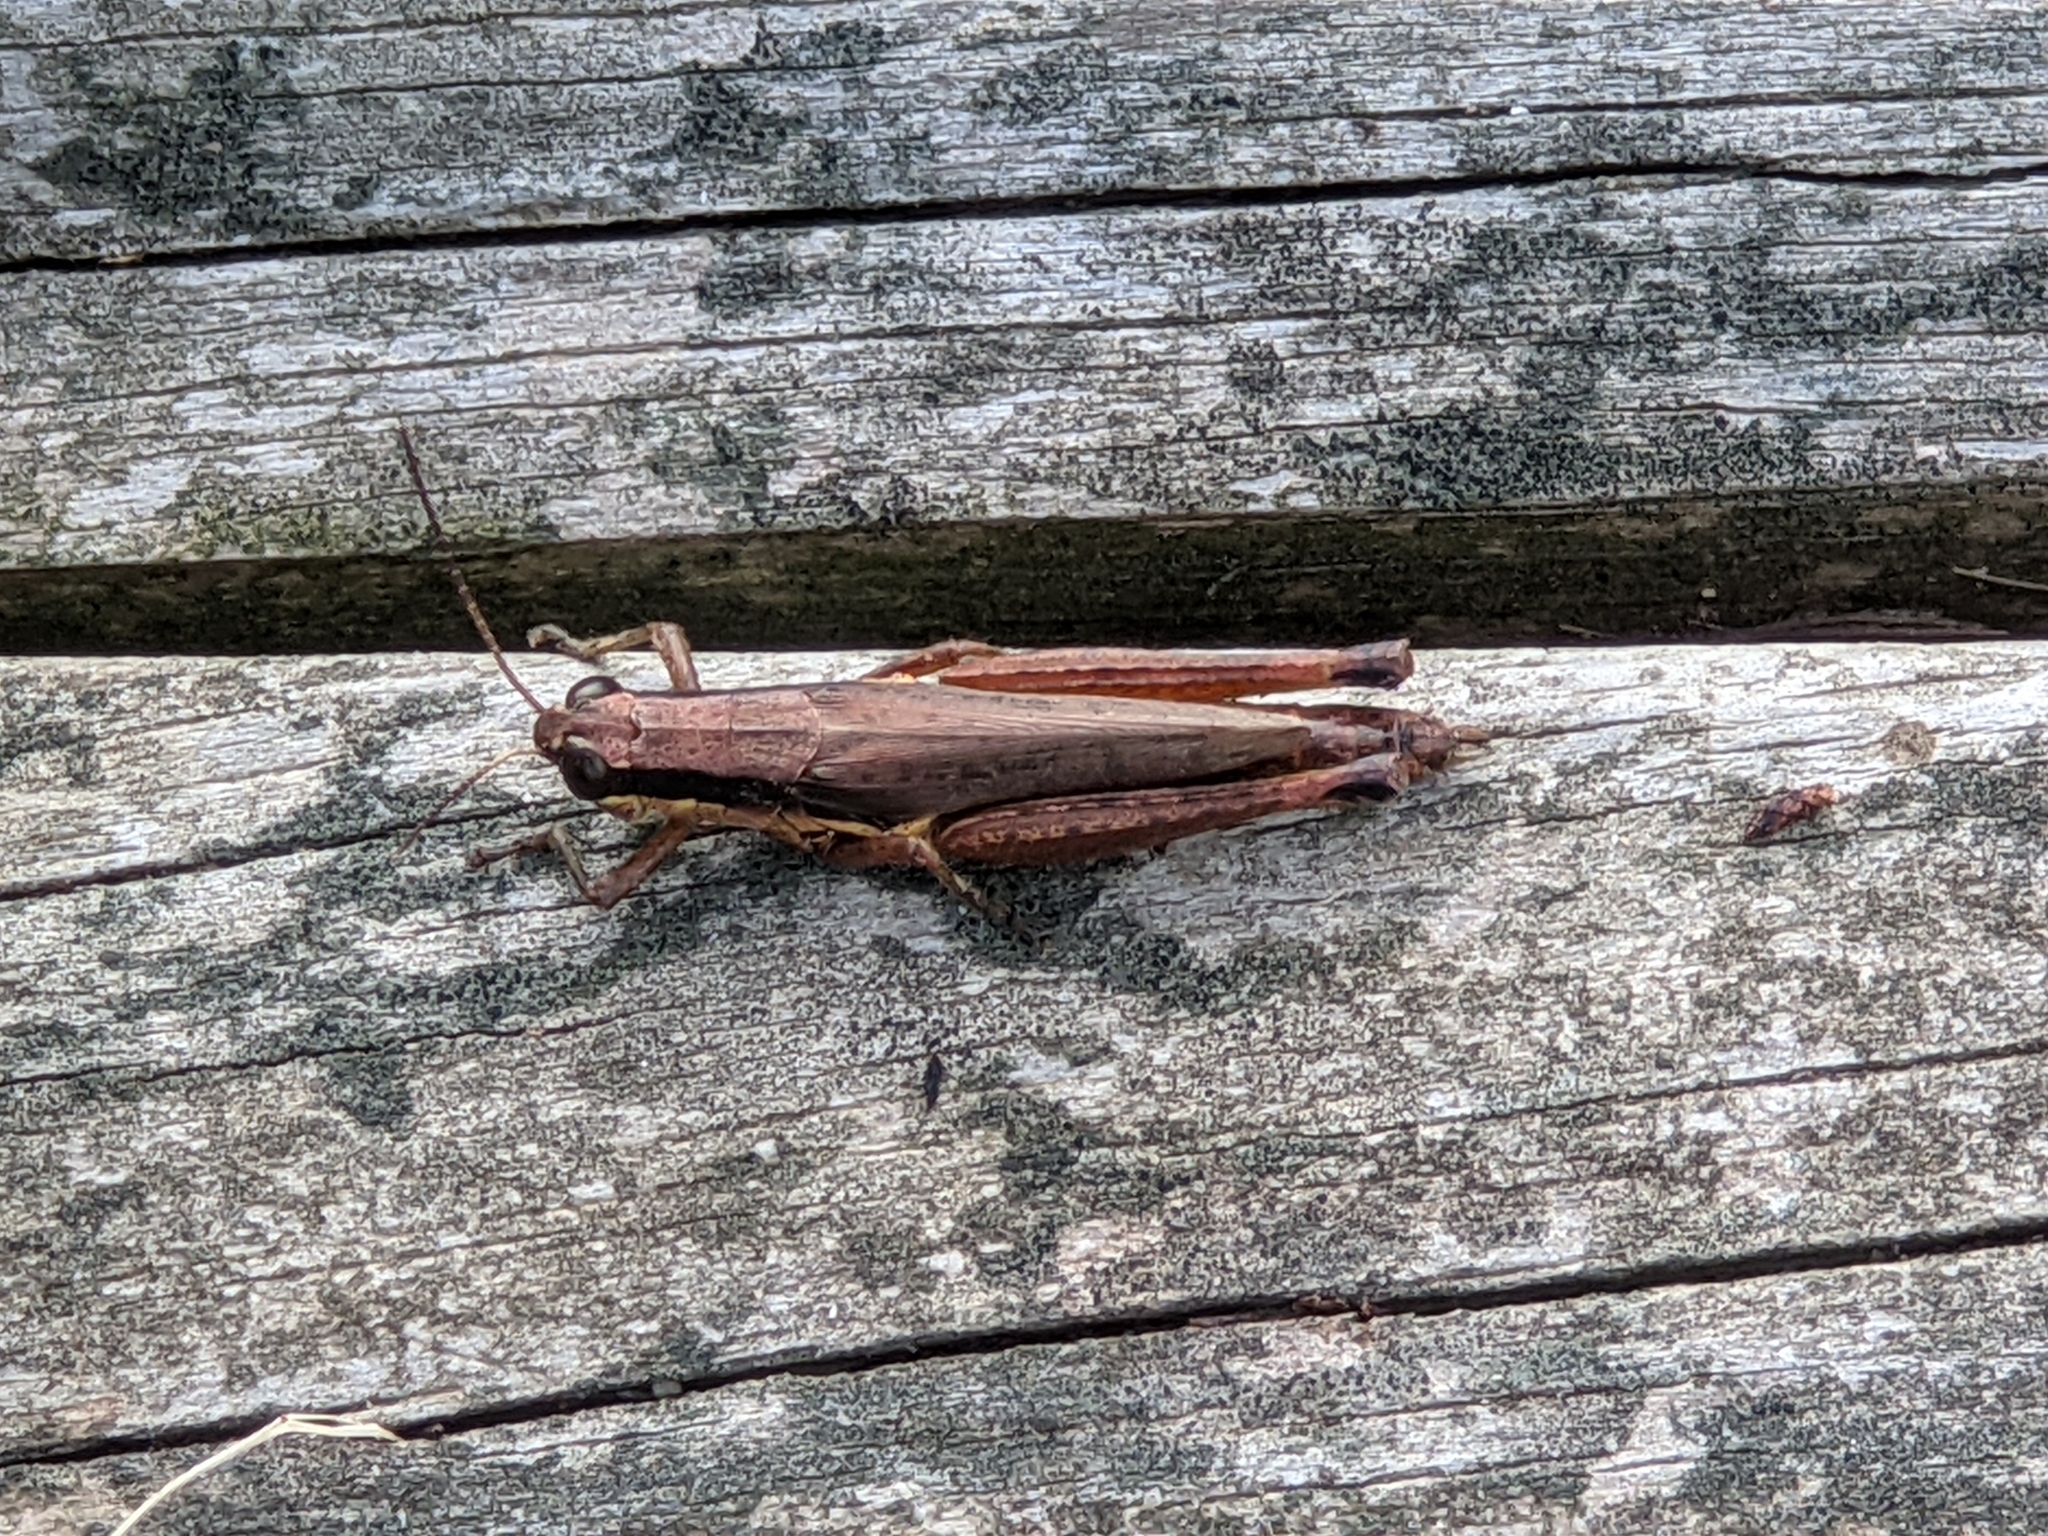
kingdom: Animalia
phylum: Arthropoda
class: Insecta
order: Orthoptera
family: Acrididae
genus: Paroxya
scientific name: Paroxya clavuligera
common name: Olive-green swamp grasshopper
